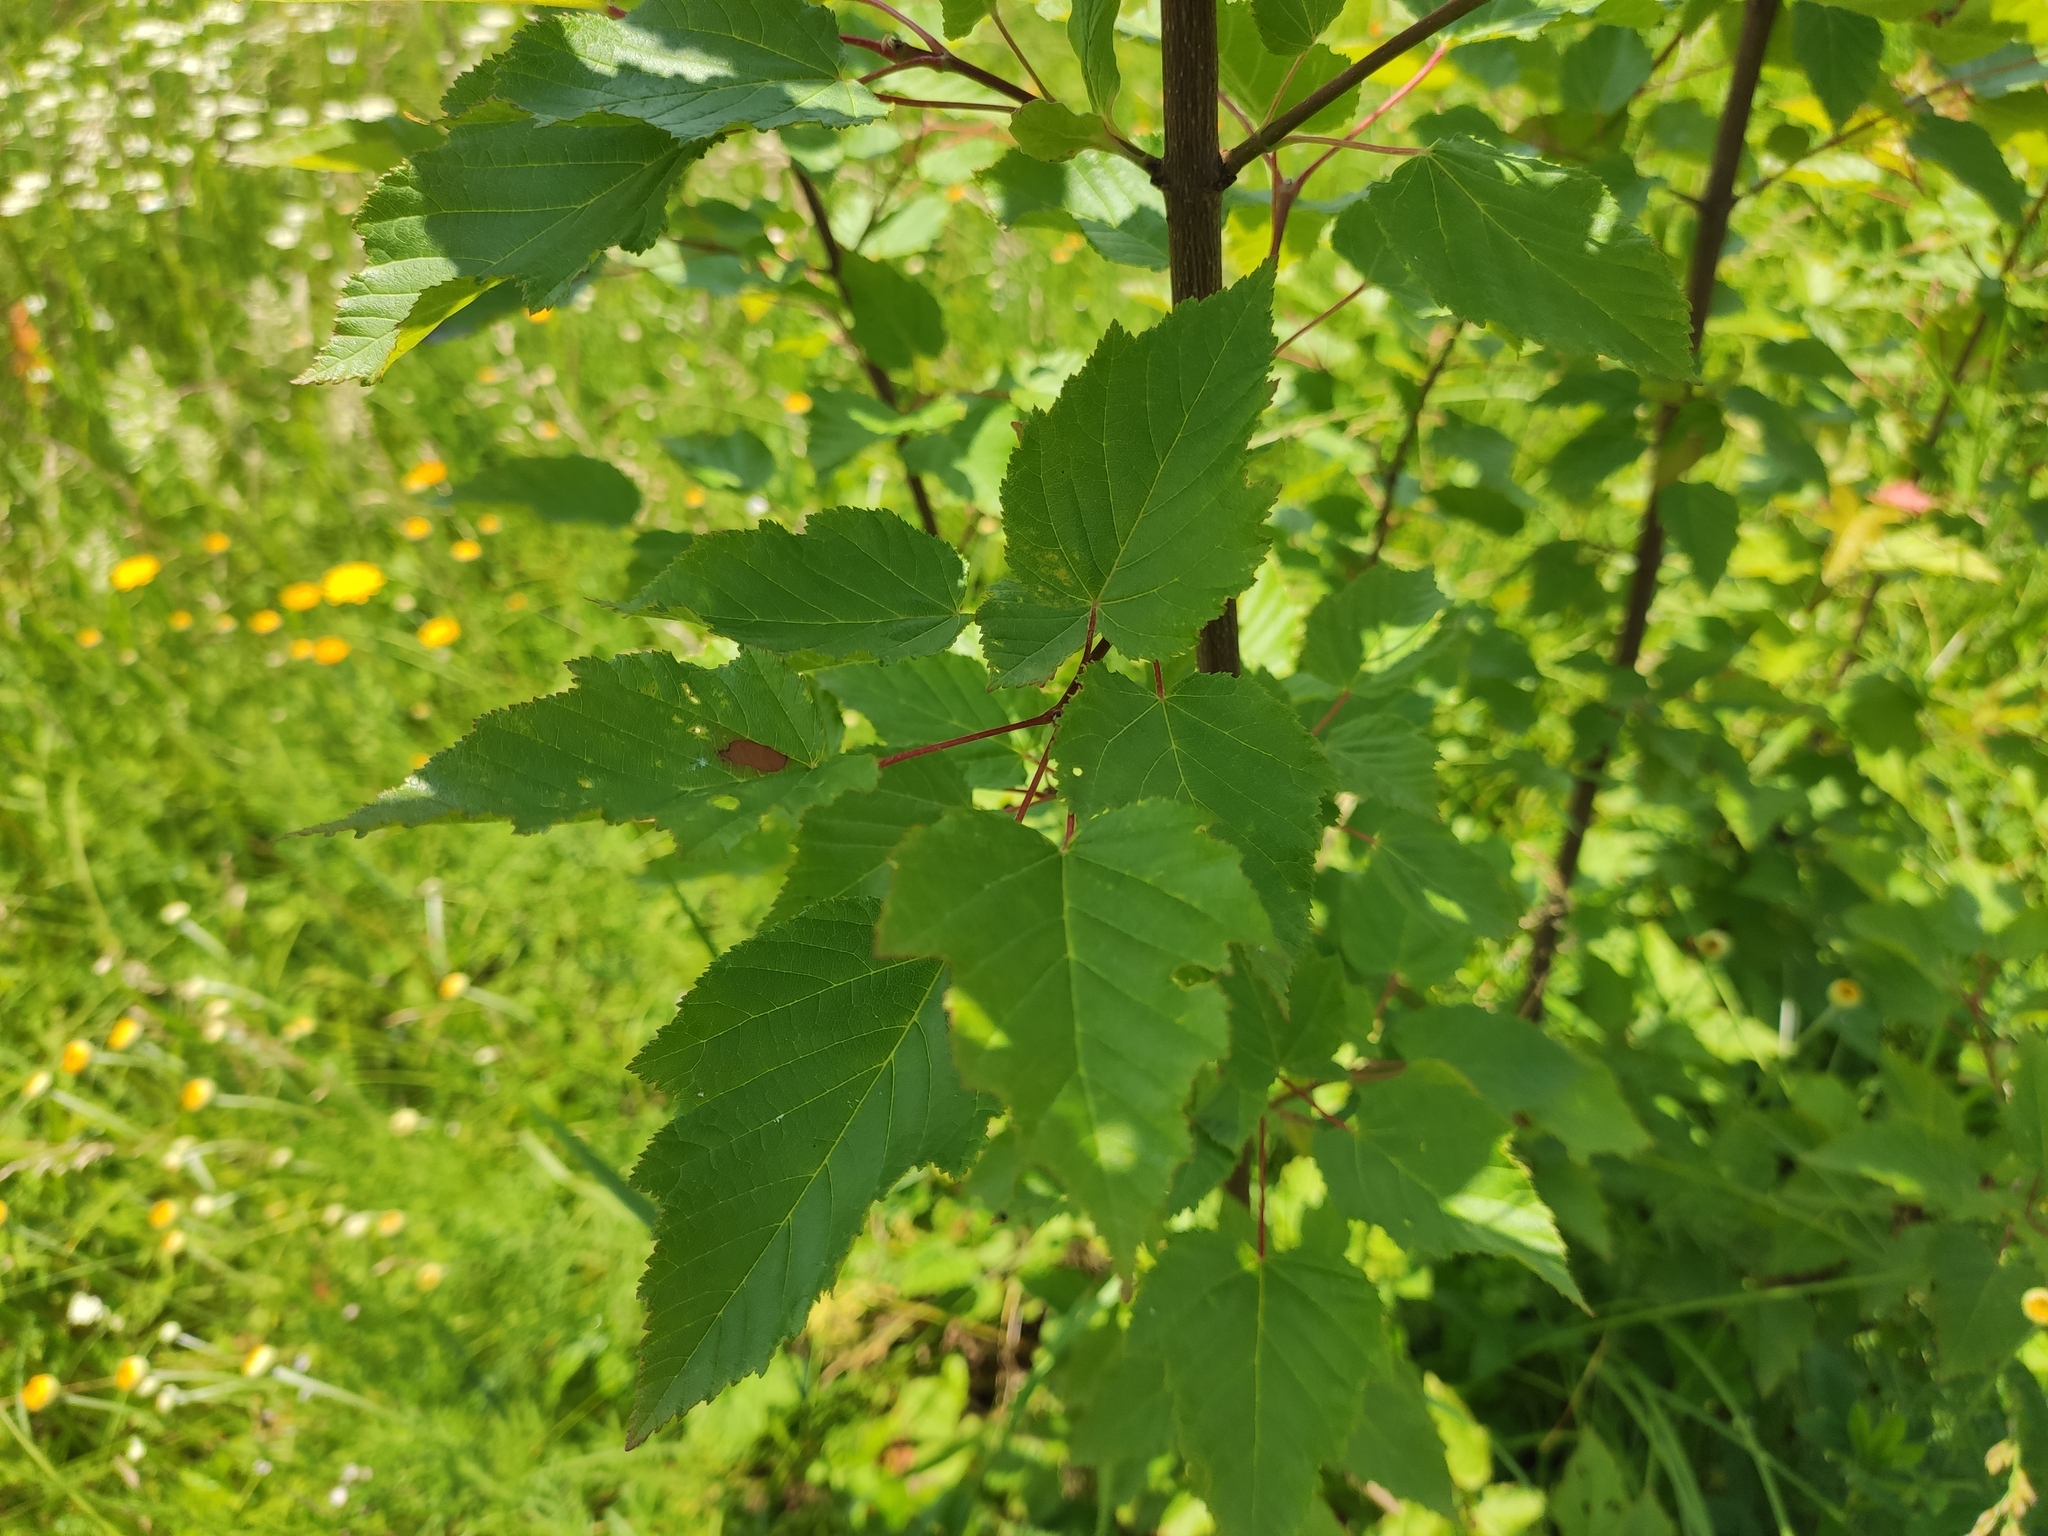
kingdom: Plantae
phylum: Tracheophyta
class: Magnoliopsida
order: Sapindales
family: Sapindaceae
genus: Acer
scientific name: Acer tataricum
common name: Tartar maple
